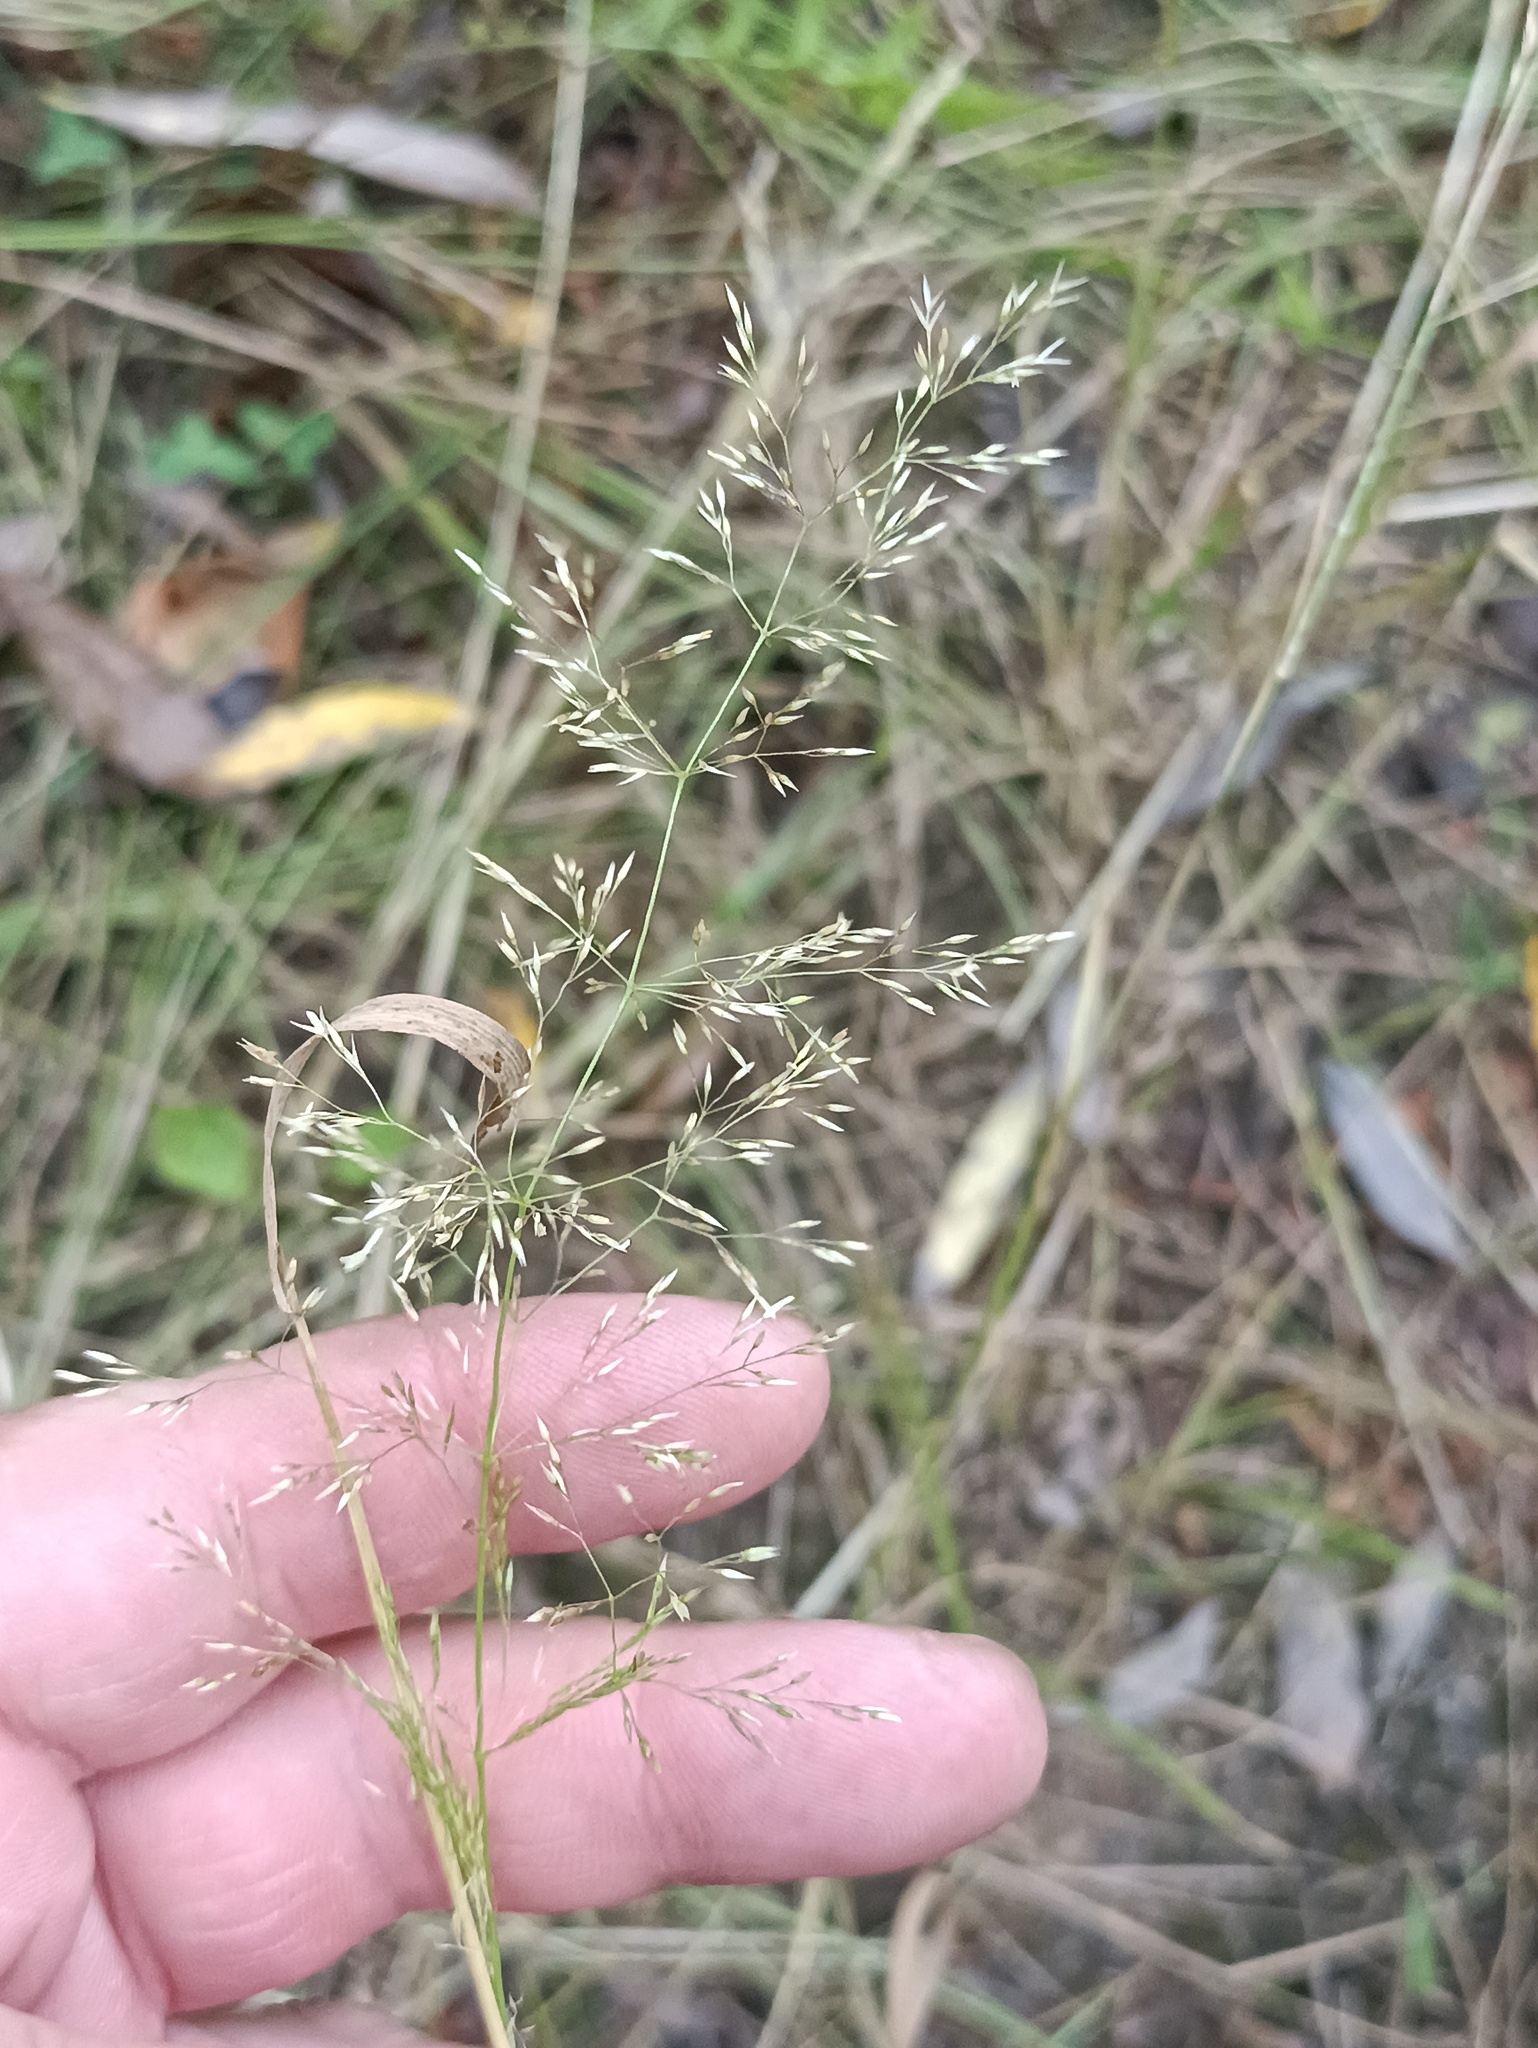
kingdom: Plantae
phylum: Tracheophyta
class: Liliopsida
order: Poales
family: Poaceae
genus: Agrostis
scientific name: Agrostis capillaris
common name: Colonial bentgrass
